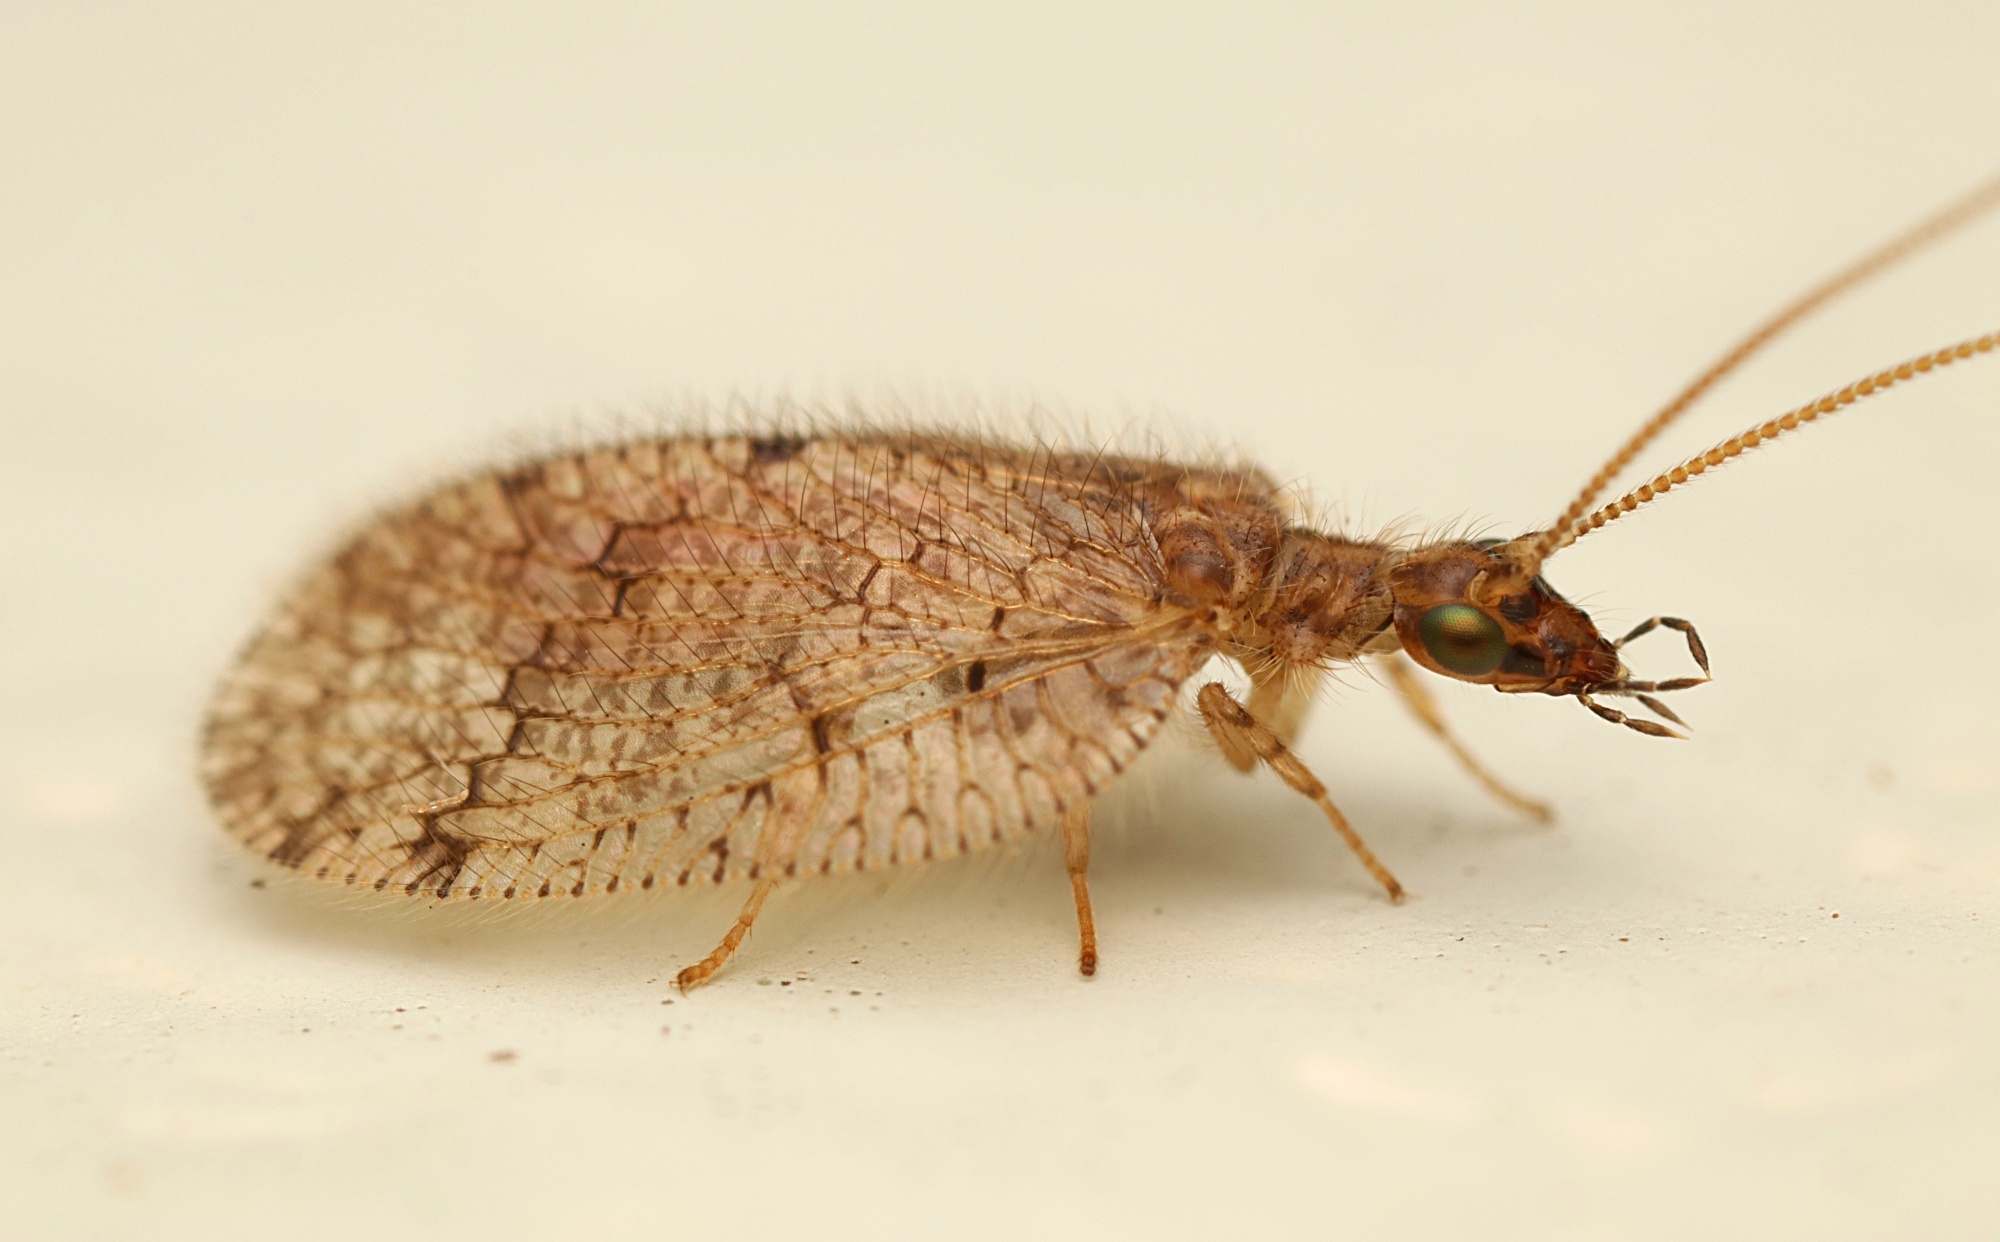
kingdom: Animalia
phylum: Arthropoda
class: Insecta
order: Neuroptera
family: Hemerobiidae
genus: Psectra
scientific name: Psectra nakaharai
